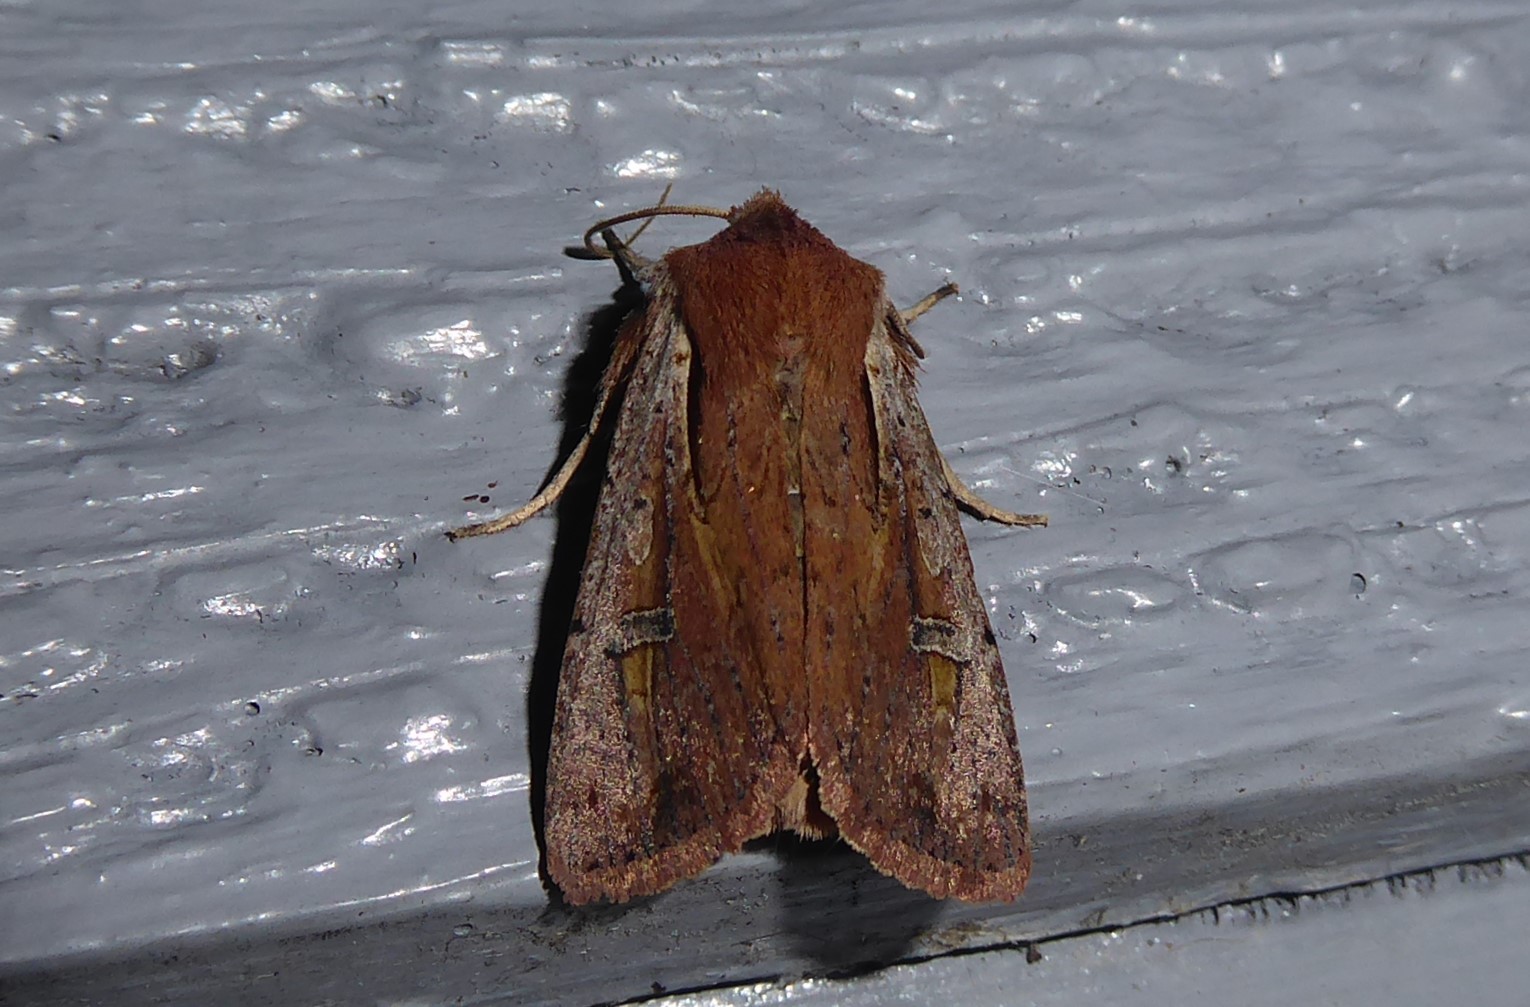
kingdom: Animalia
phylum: Arthropoda
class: Insecta
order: Lepidoptera
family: Noctuidae
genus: Ichneutica
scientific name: Ichneutica atristriga
